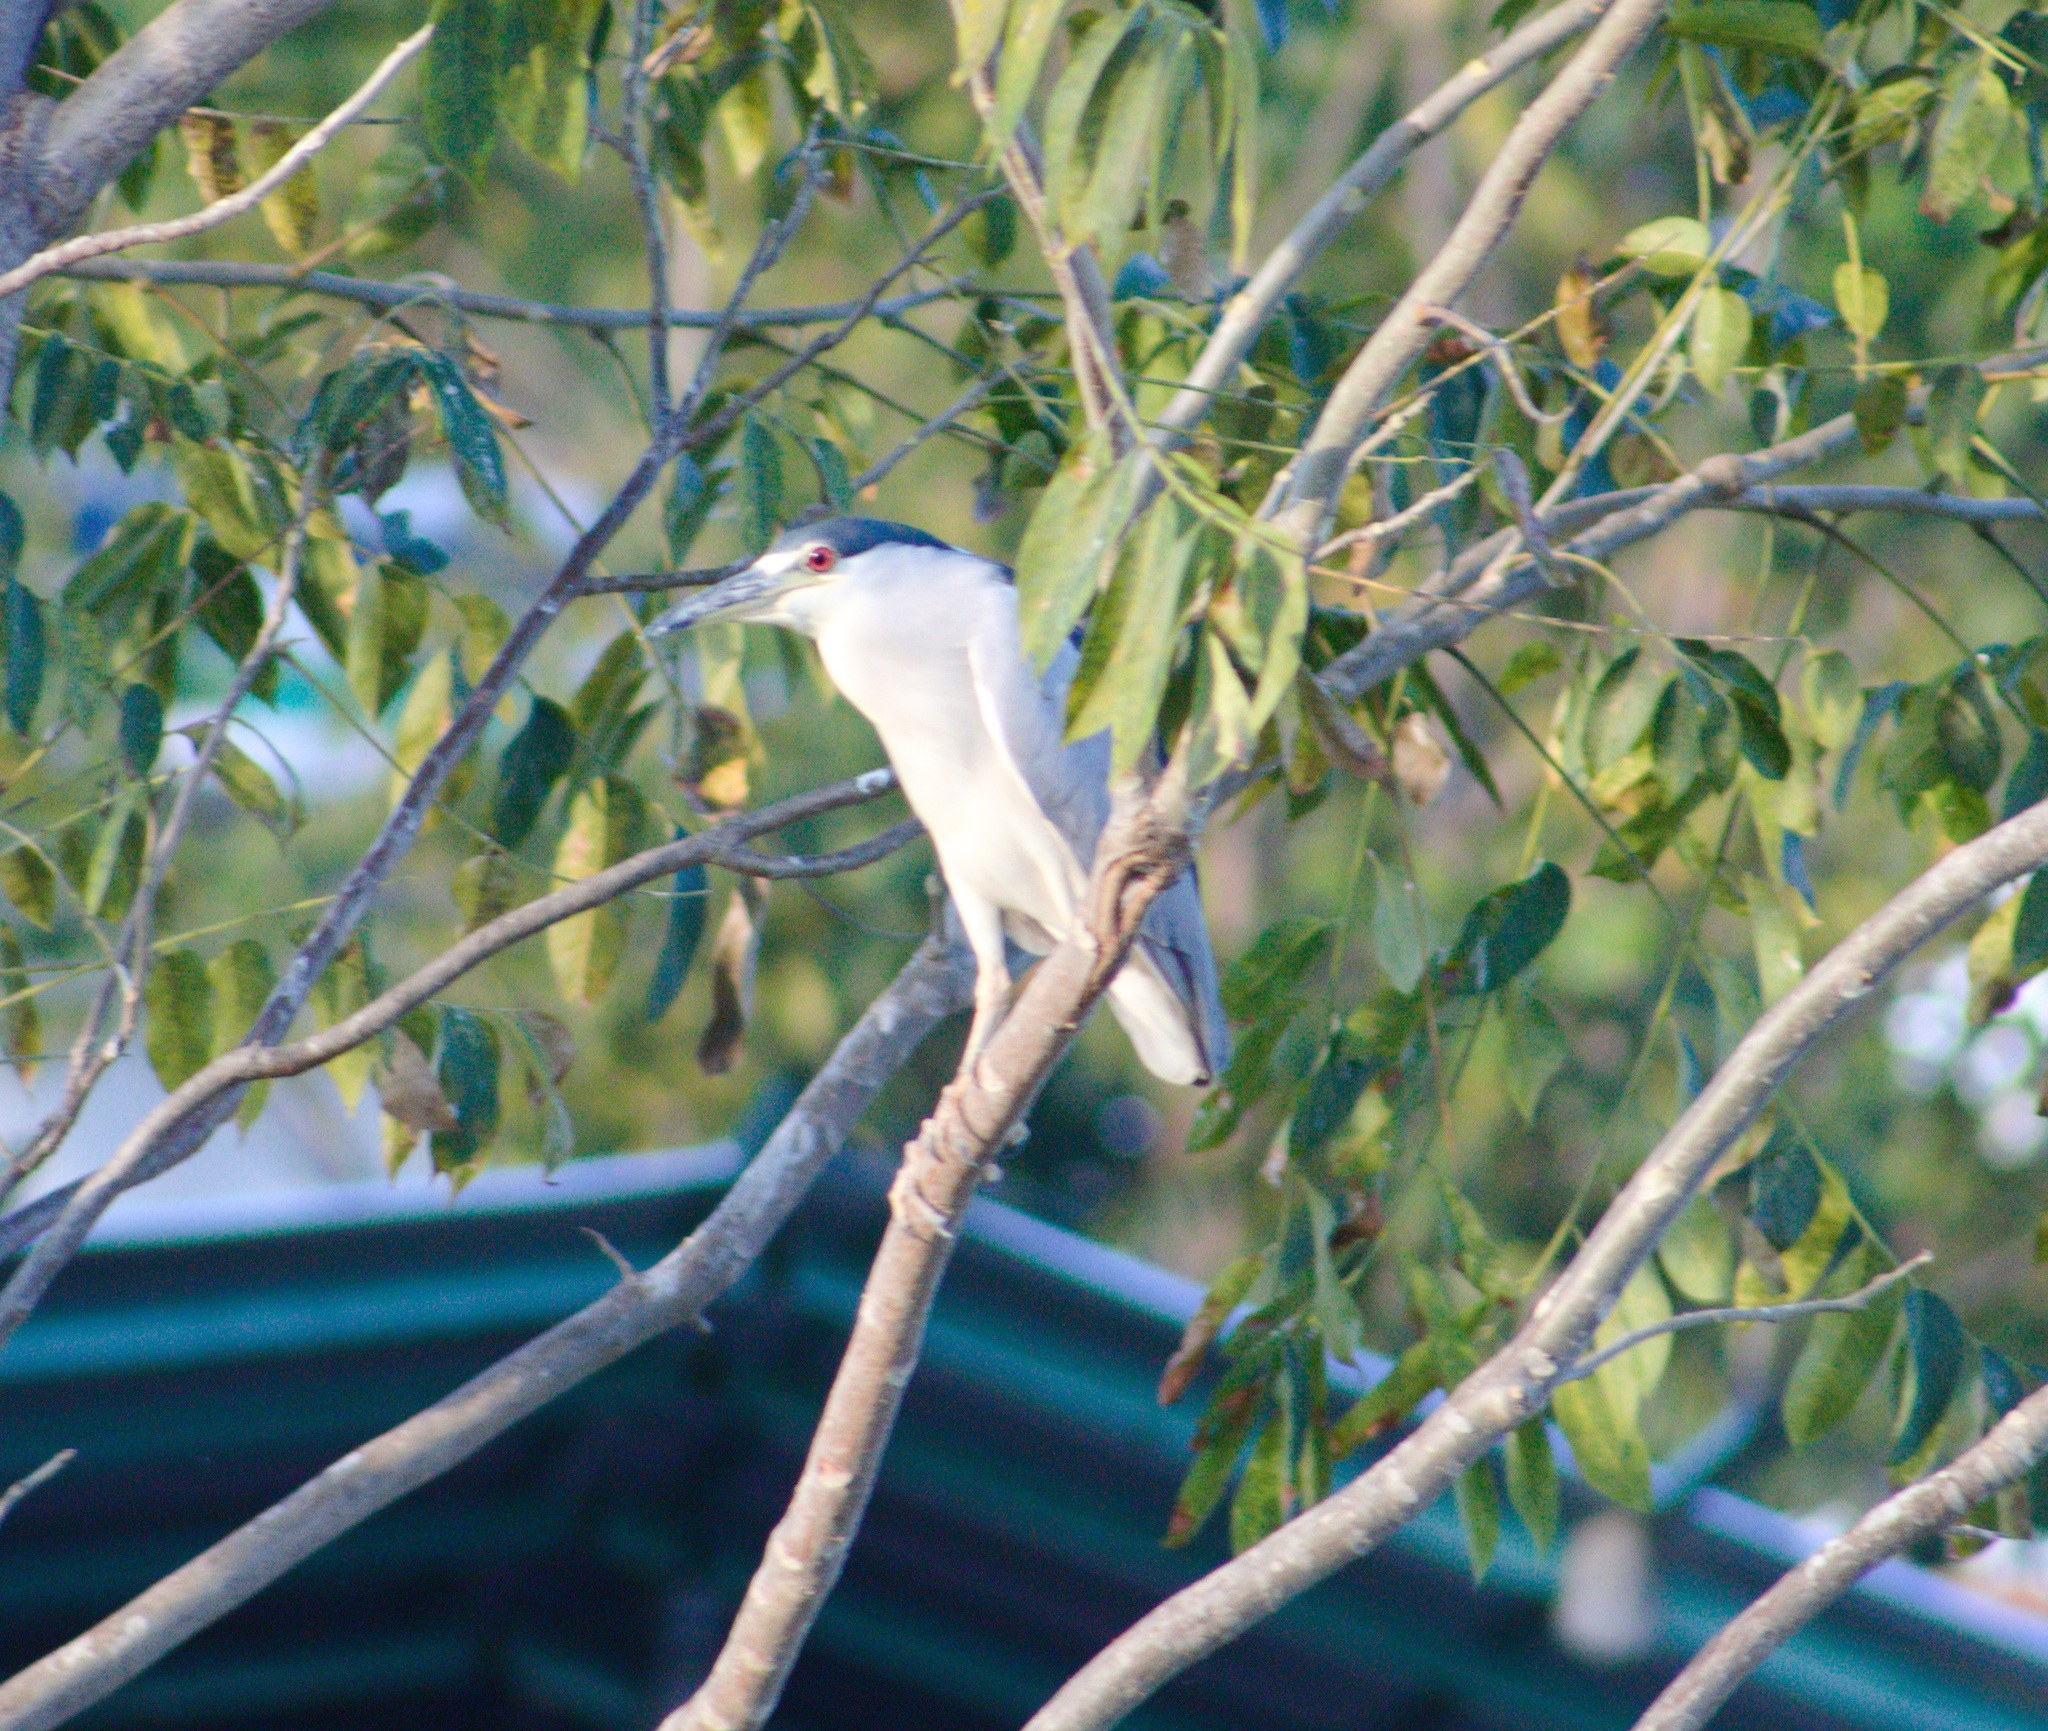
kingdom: Animalia
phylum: Chordata
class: Aves
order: Pelecaniformes
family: Ardeidae
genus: Nycticorax
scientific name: Nycticorax nycticorax
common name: Black-crowned night heron
